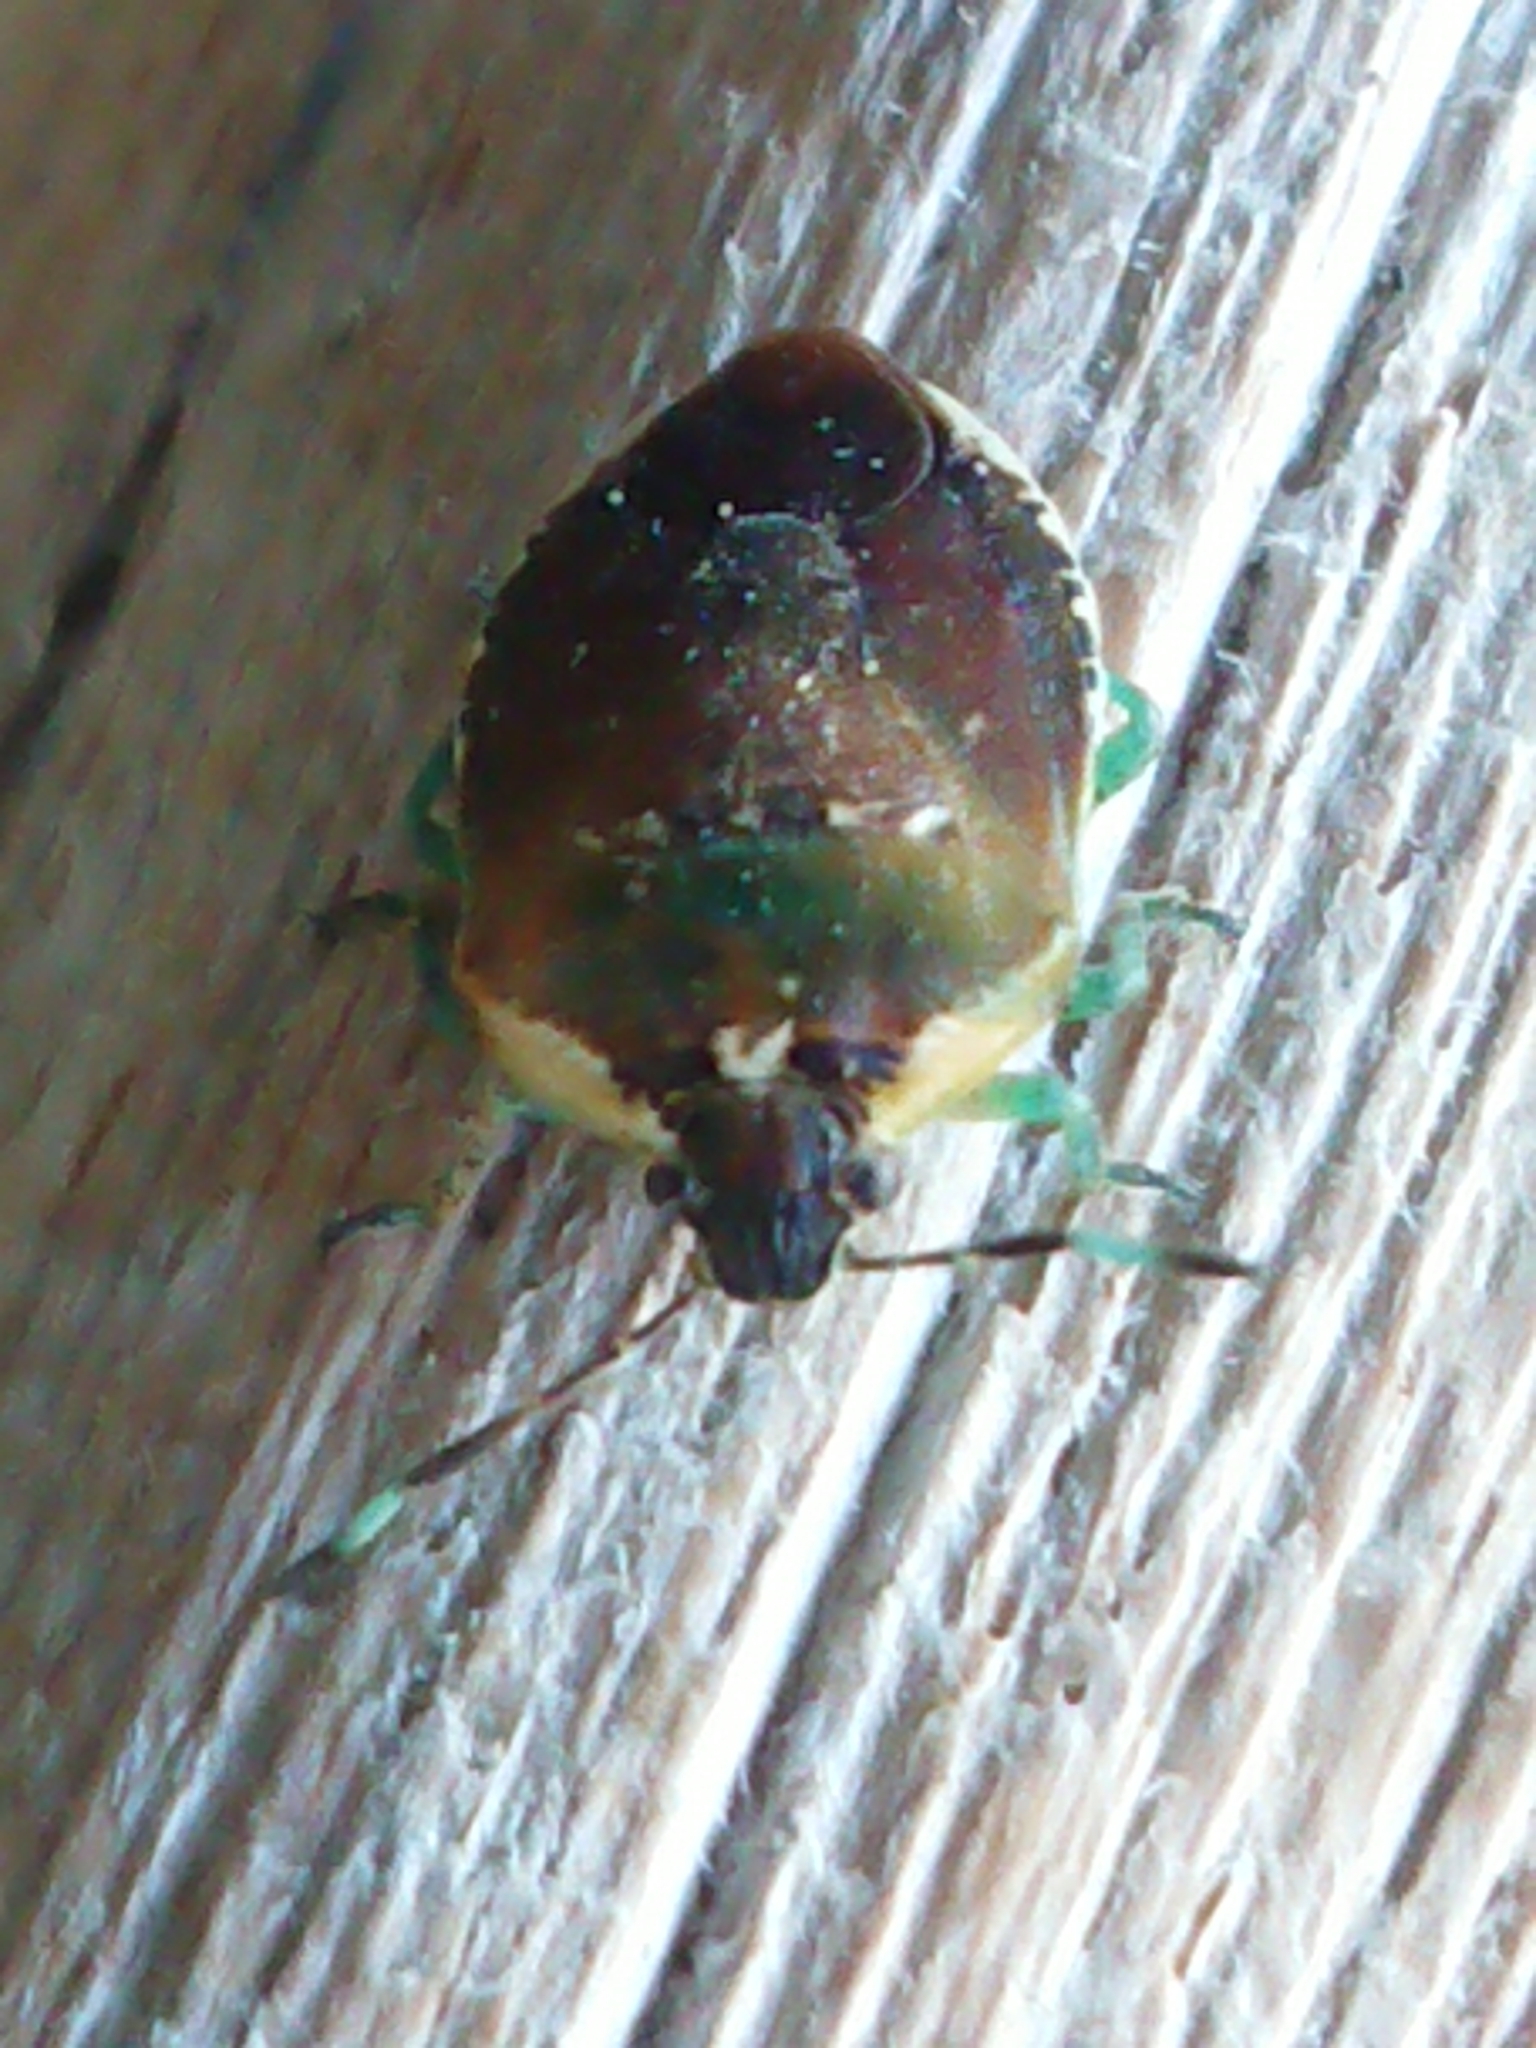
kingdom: Animalia
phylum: Arthropoda
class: Insecta
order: Hemiptera
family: Pentatomidae
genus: Monteithiella
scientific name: Monteithiella
